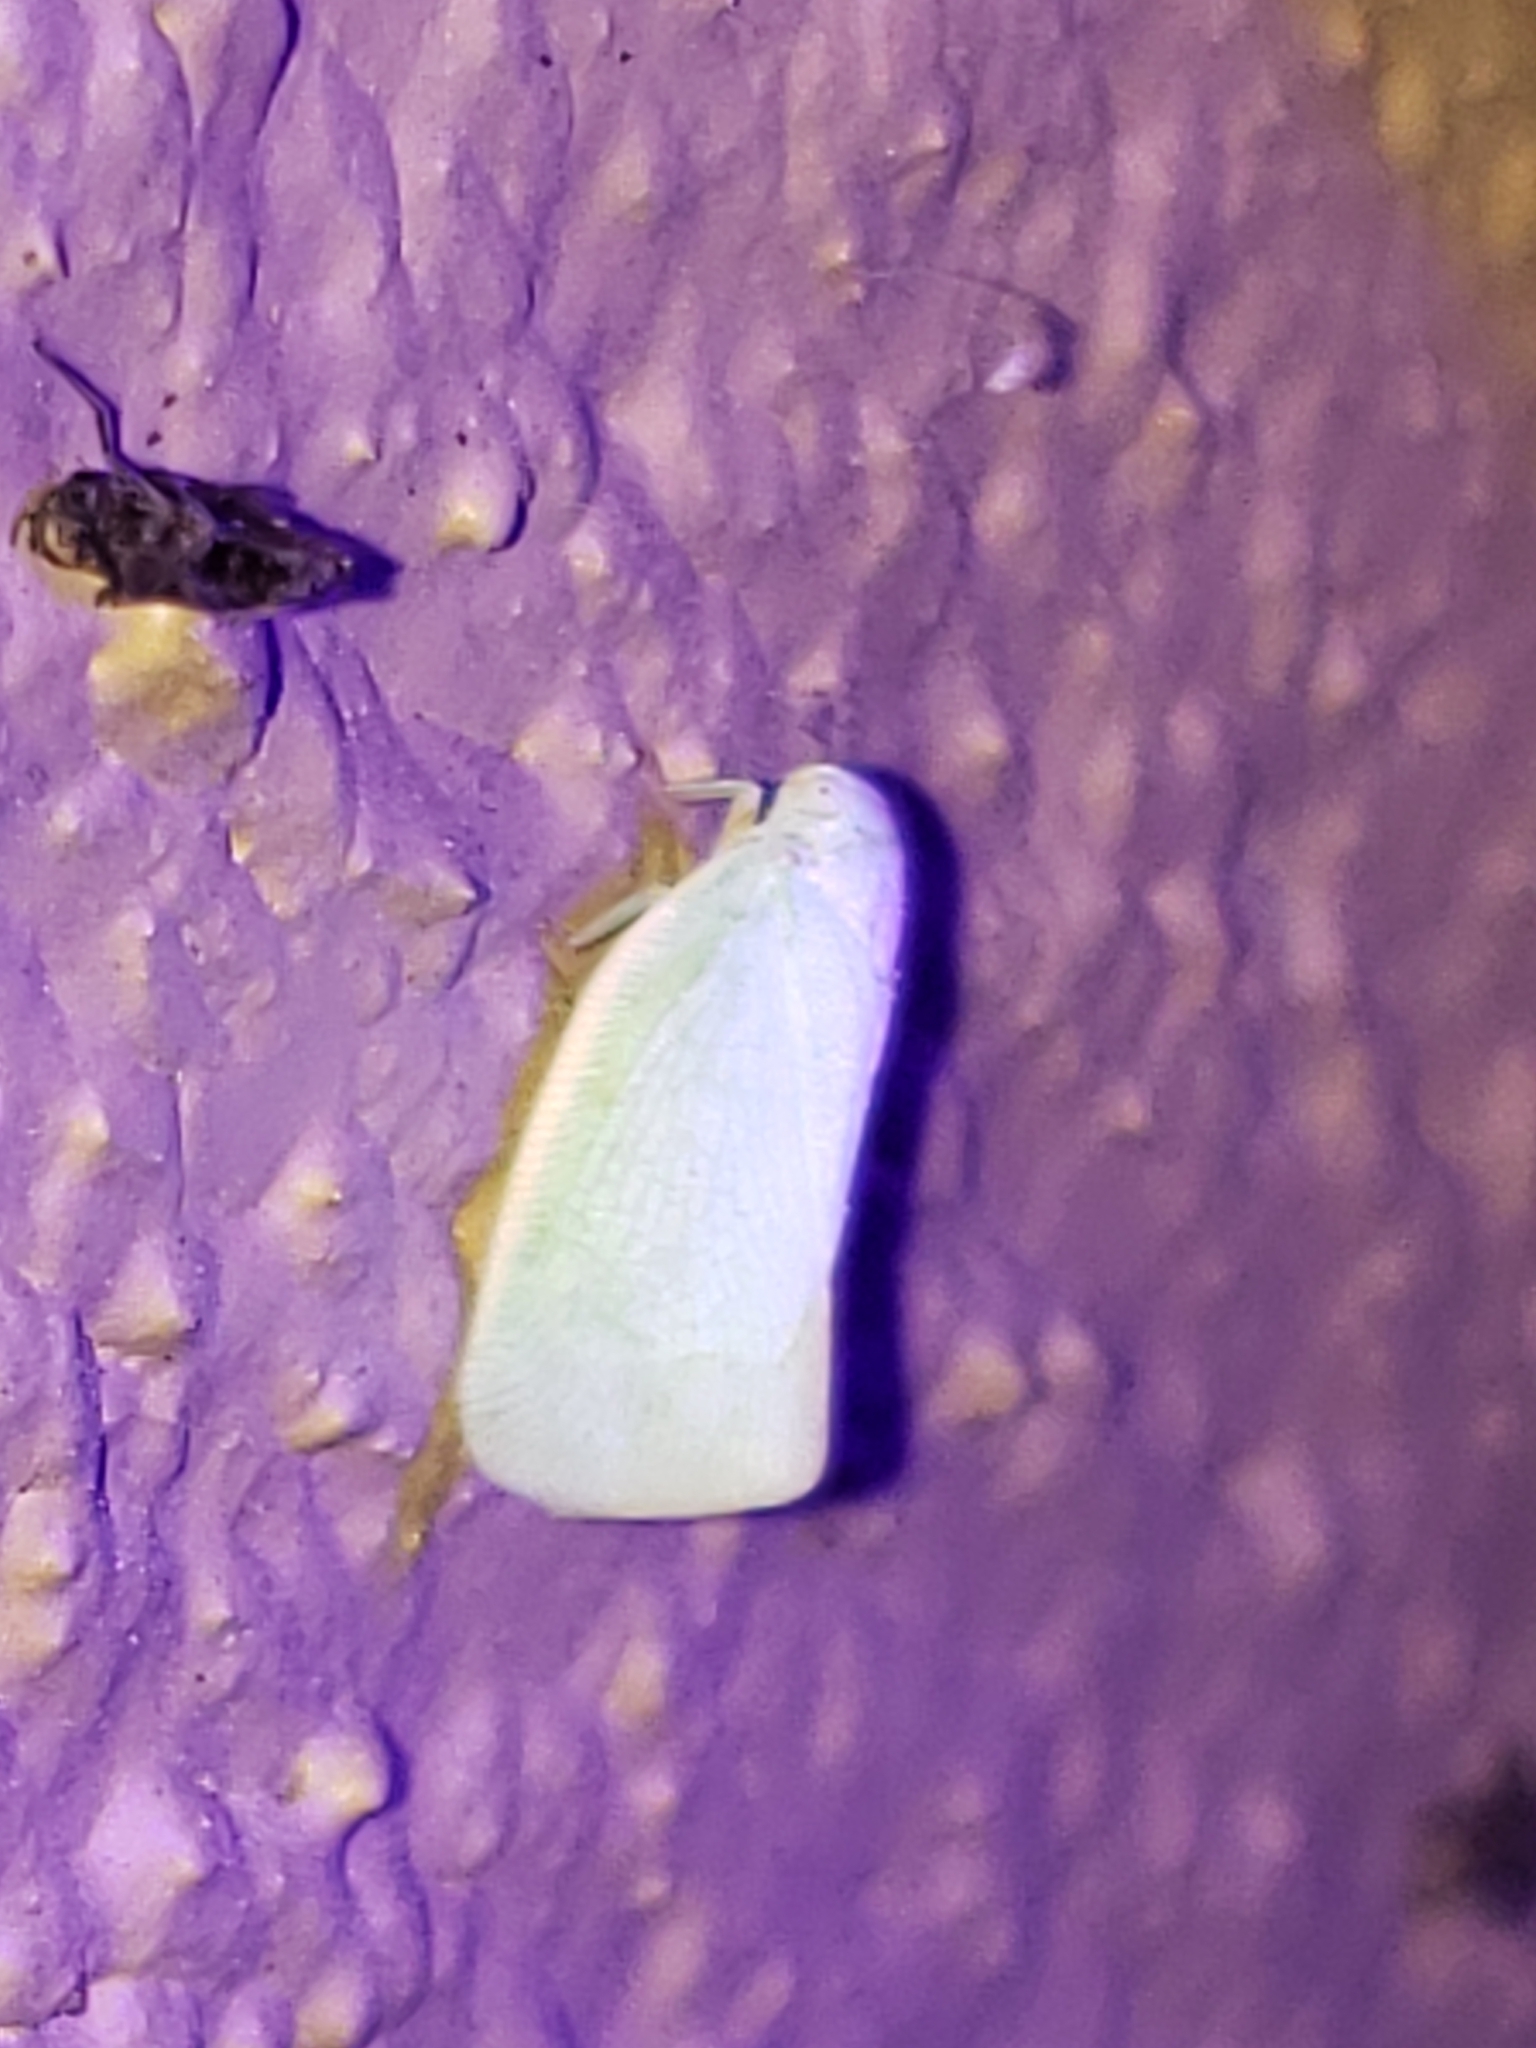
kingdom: Animalia
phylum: Arthropoda
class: Insecta
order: Hemiptera
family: Flatidae
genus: Flatormenis
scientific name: Flatormenis proxima
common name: Northern flatid planthopper
